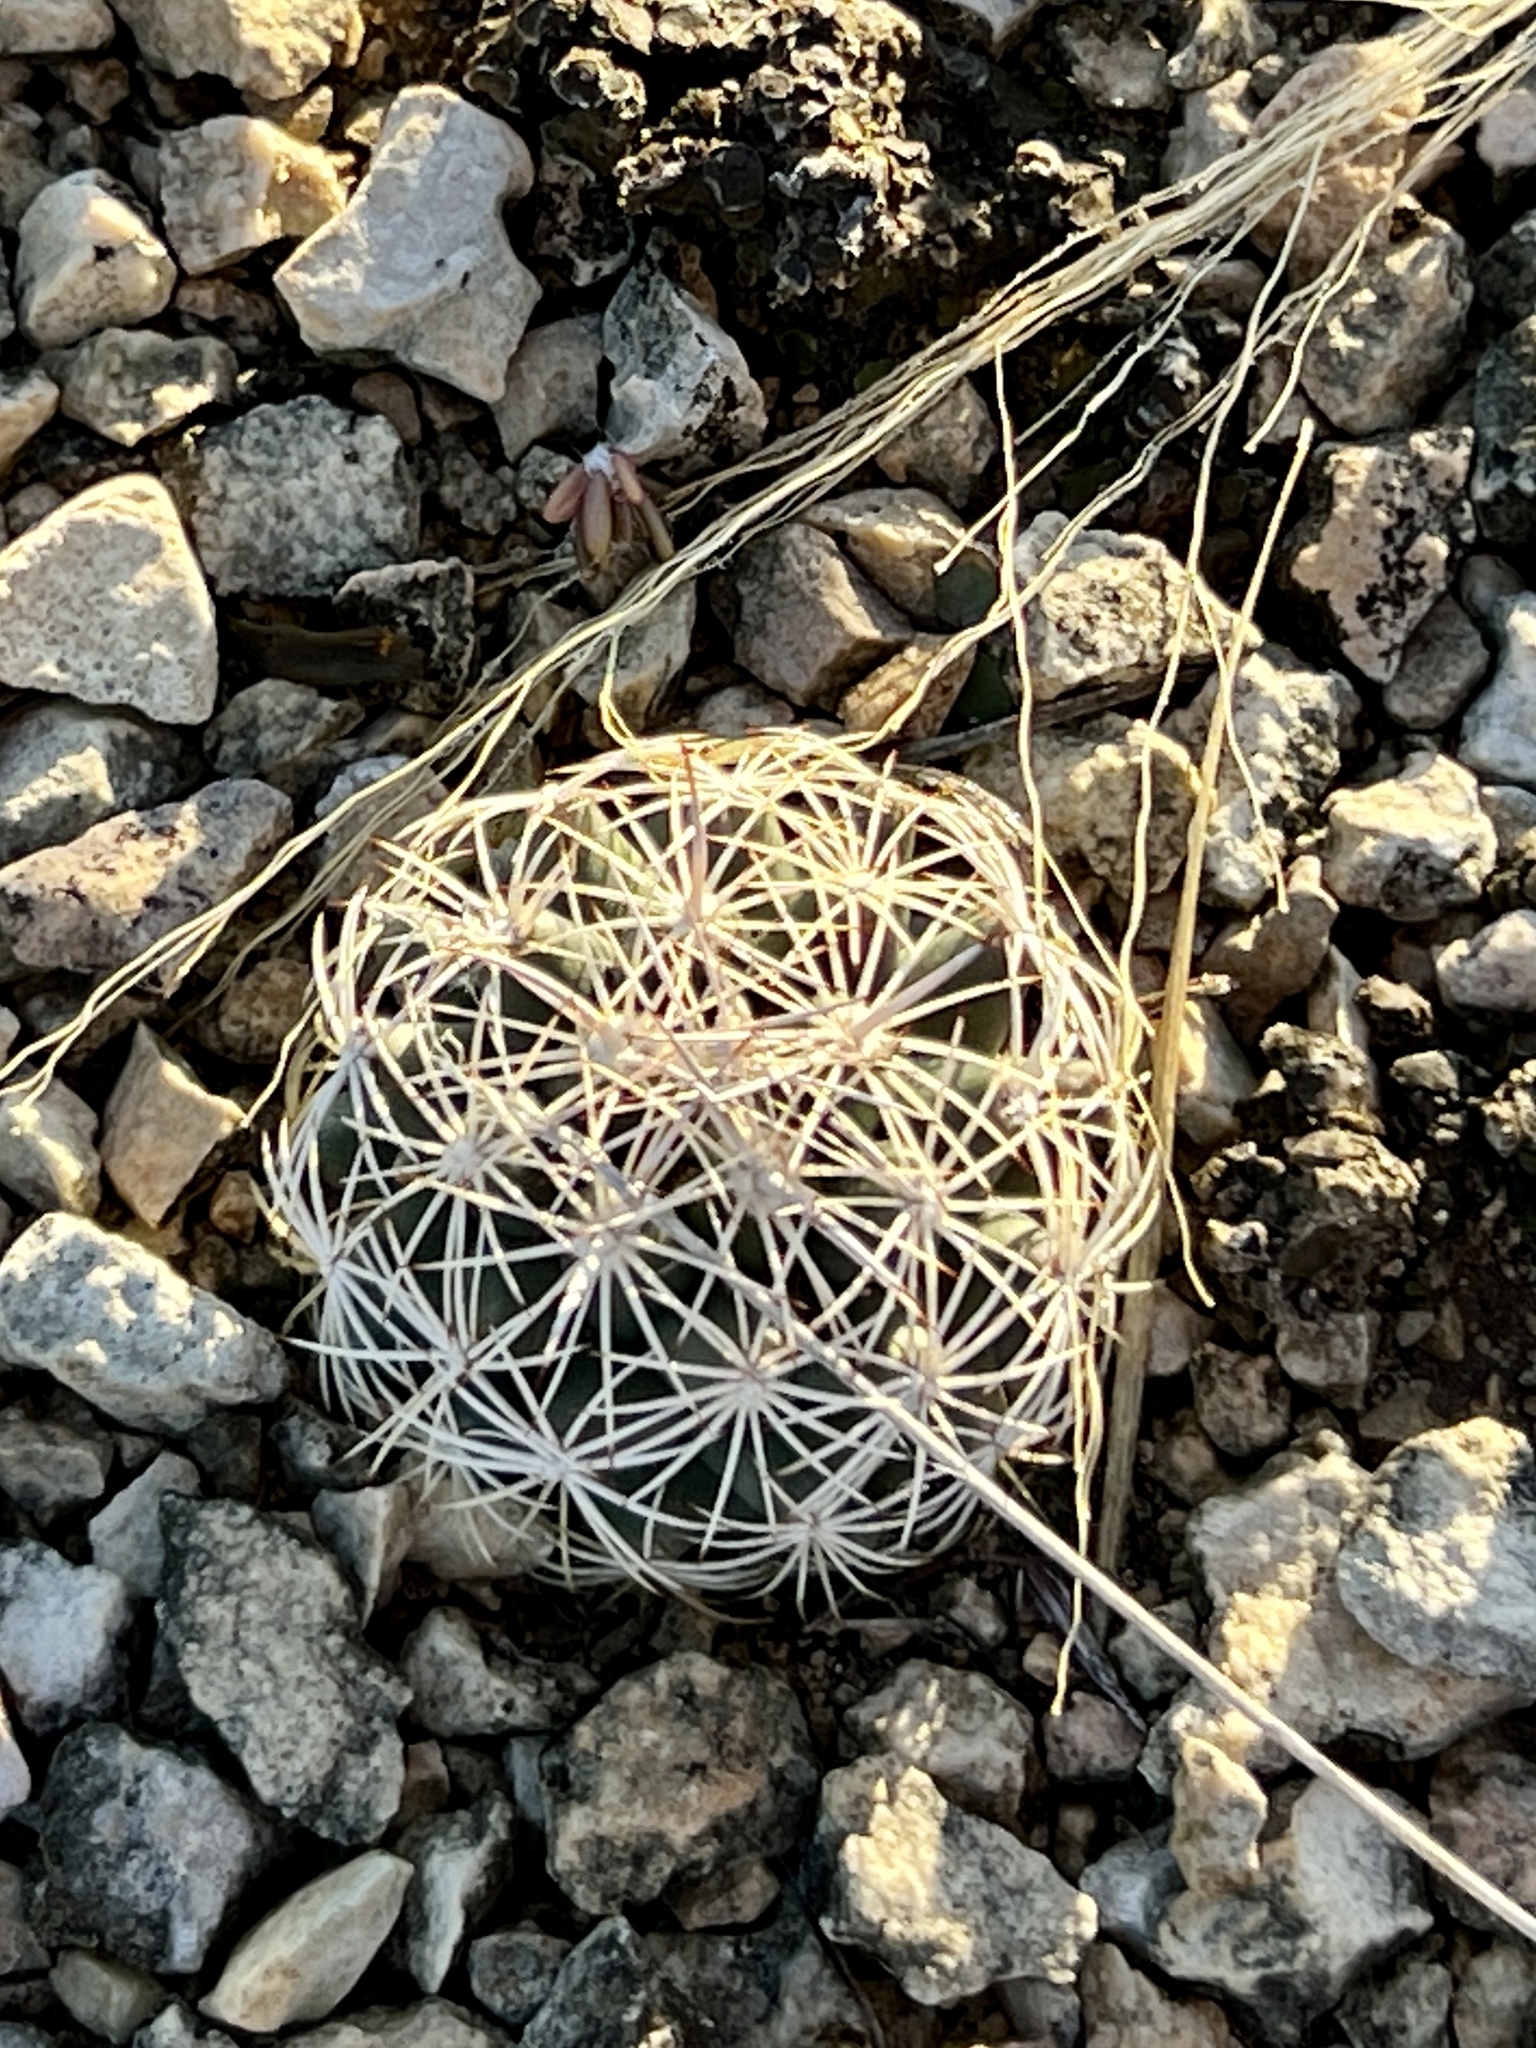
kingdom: Plantae
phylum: Tracheophyta
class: Magnoliopsida
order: Caryophyllales
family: Cactaceae
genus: Coryphantha
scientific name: Coryphantha echinus
